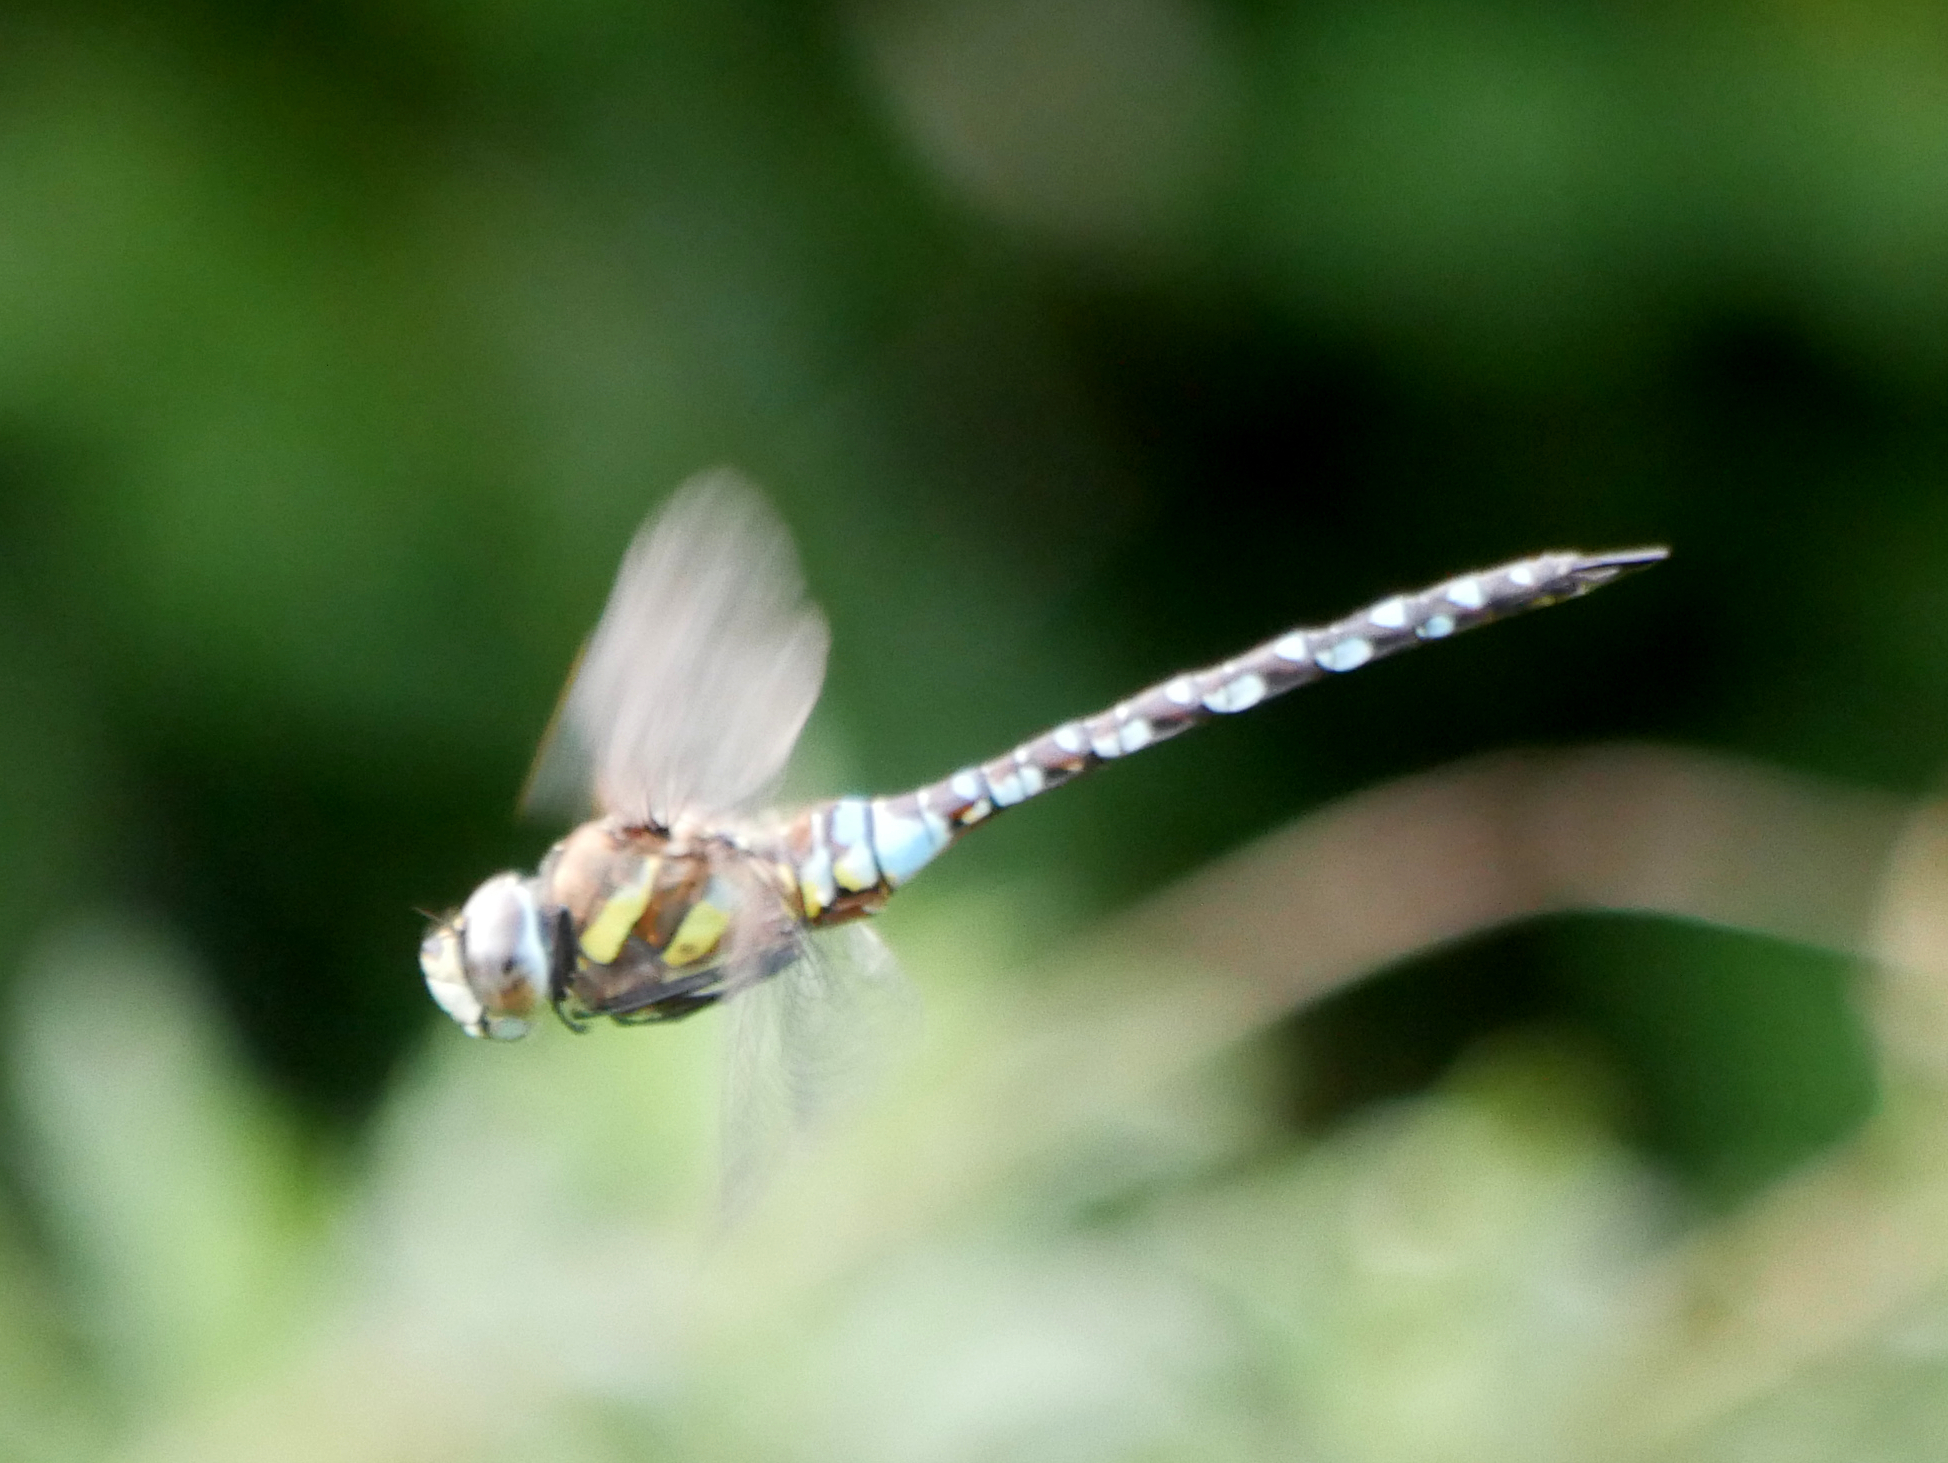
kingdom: Animalia
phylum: Arthropoda
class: Insecta
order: Odonata
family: Aeshnidae
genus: Aeshna
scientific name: Aeshna mixta
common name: Migrant hawker
